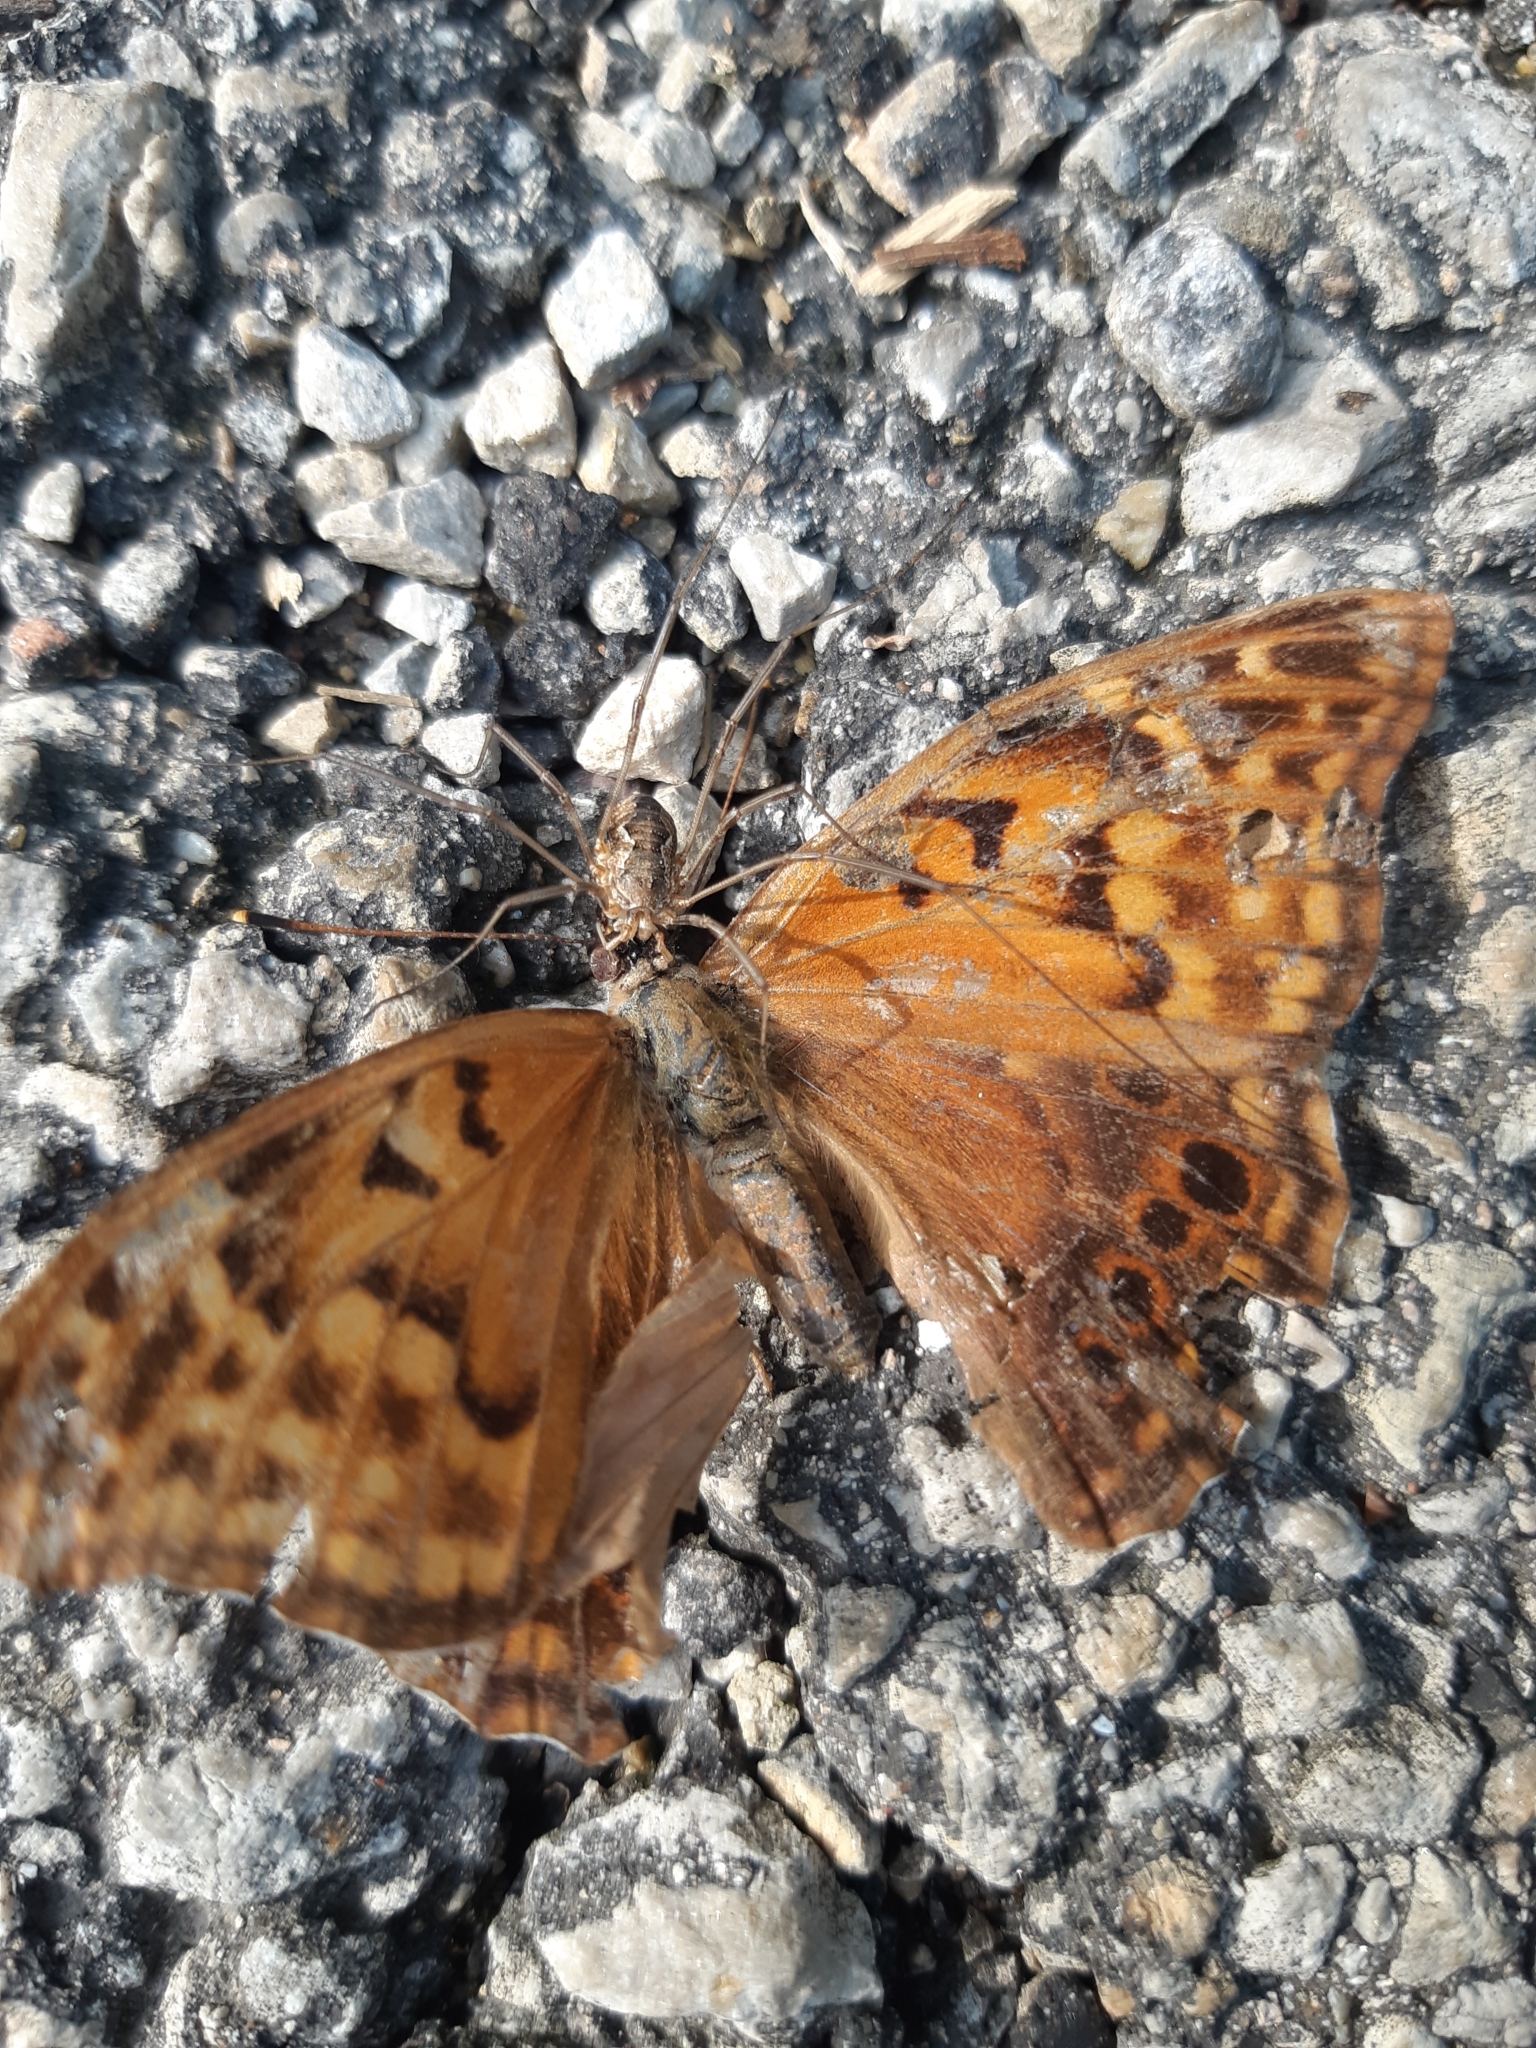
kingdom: Animalia
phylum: Arthropoda
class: Insecta
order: Lepidoptera
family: Nymphalidae
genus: Asterocampa
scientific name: Asterocampa clyton
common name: Tawny emperor
